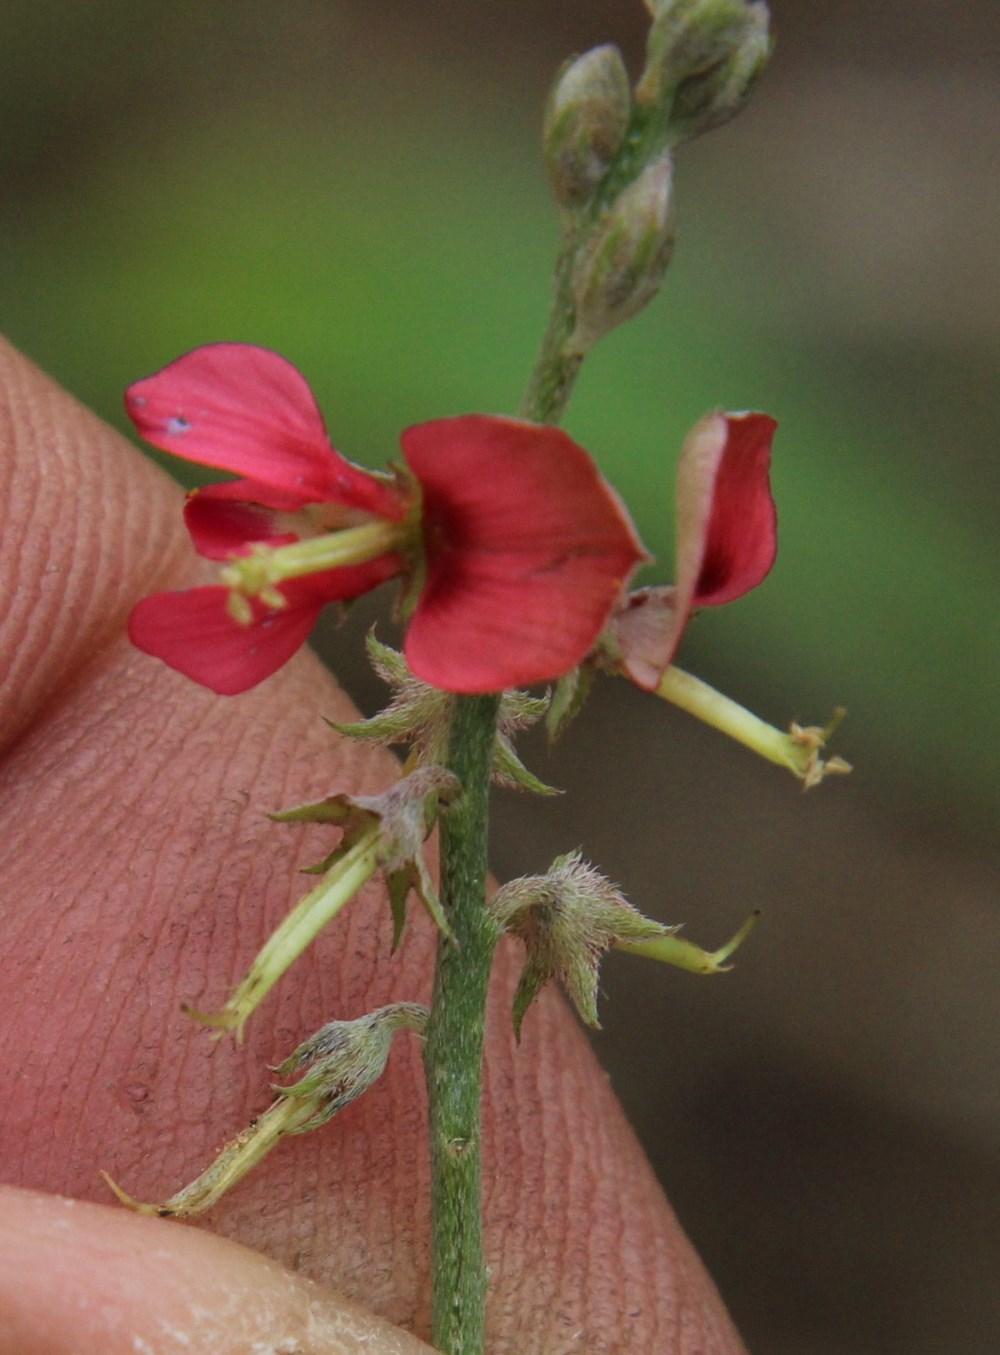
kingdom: Plantae
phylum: Tracheophyta
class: Magnoliopsida
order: Fabales
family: Fabaceae
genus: Indigofera
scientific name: Indigofera disticha
